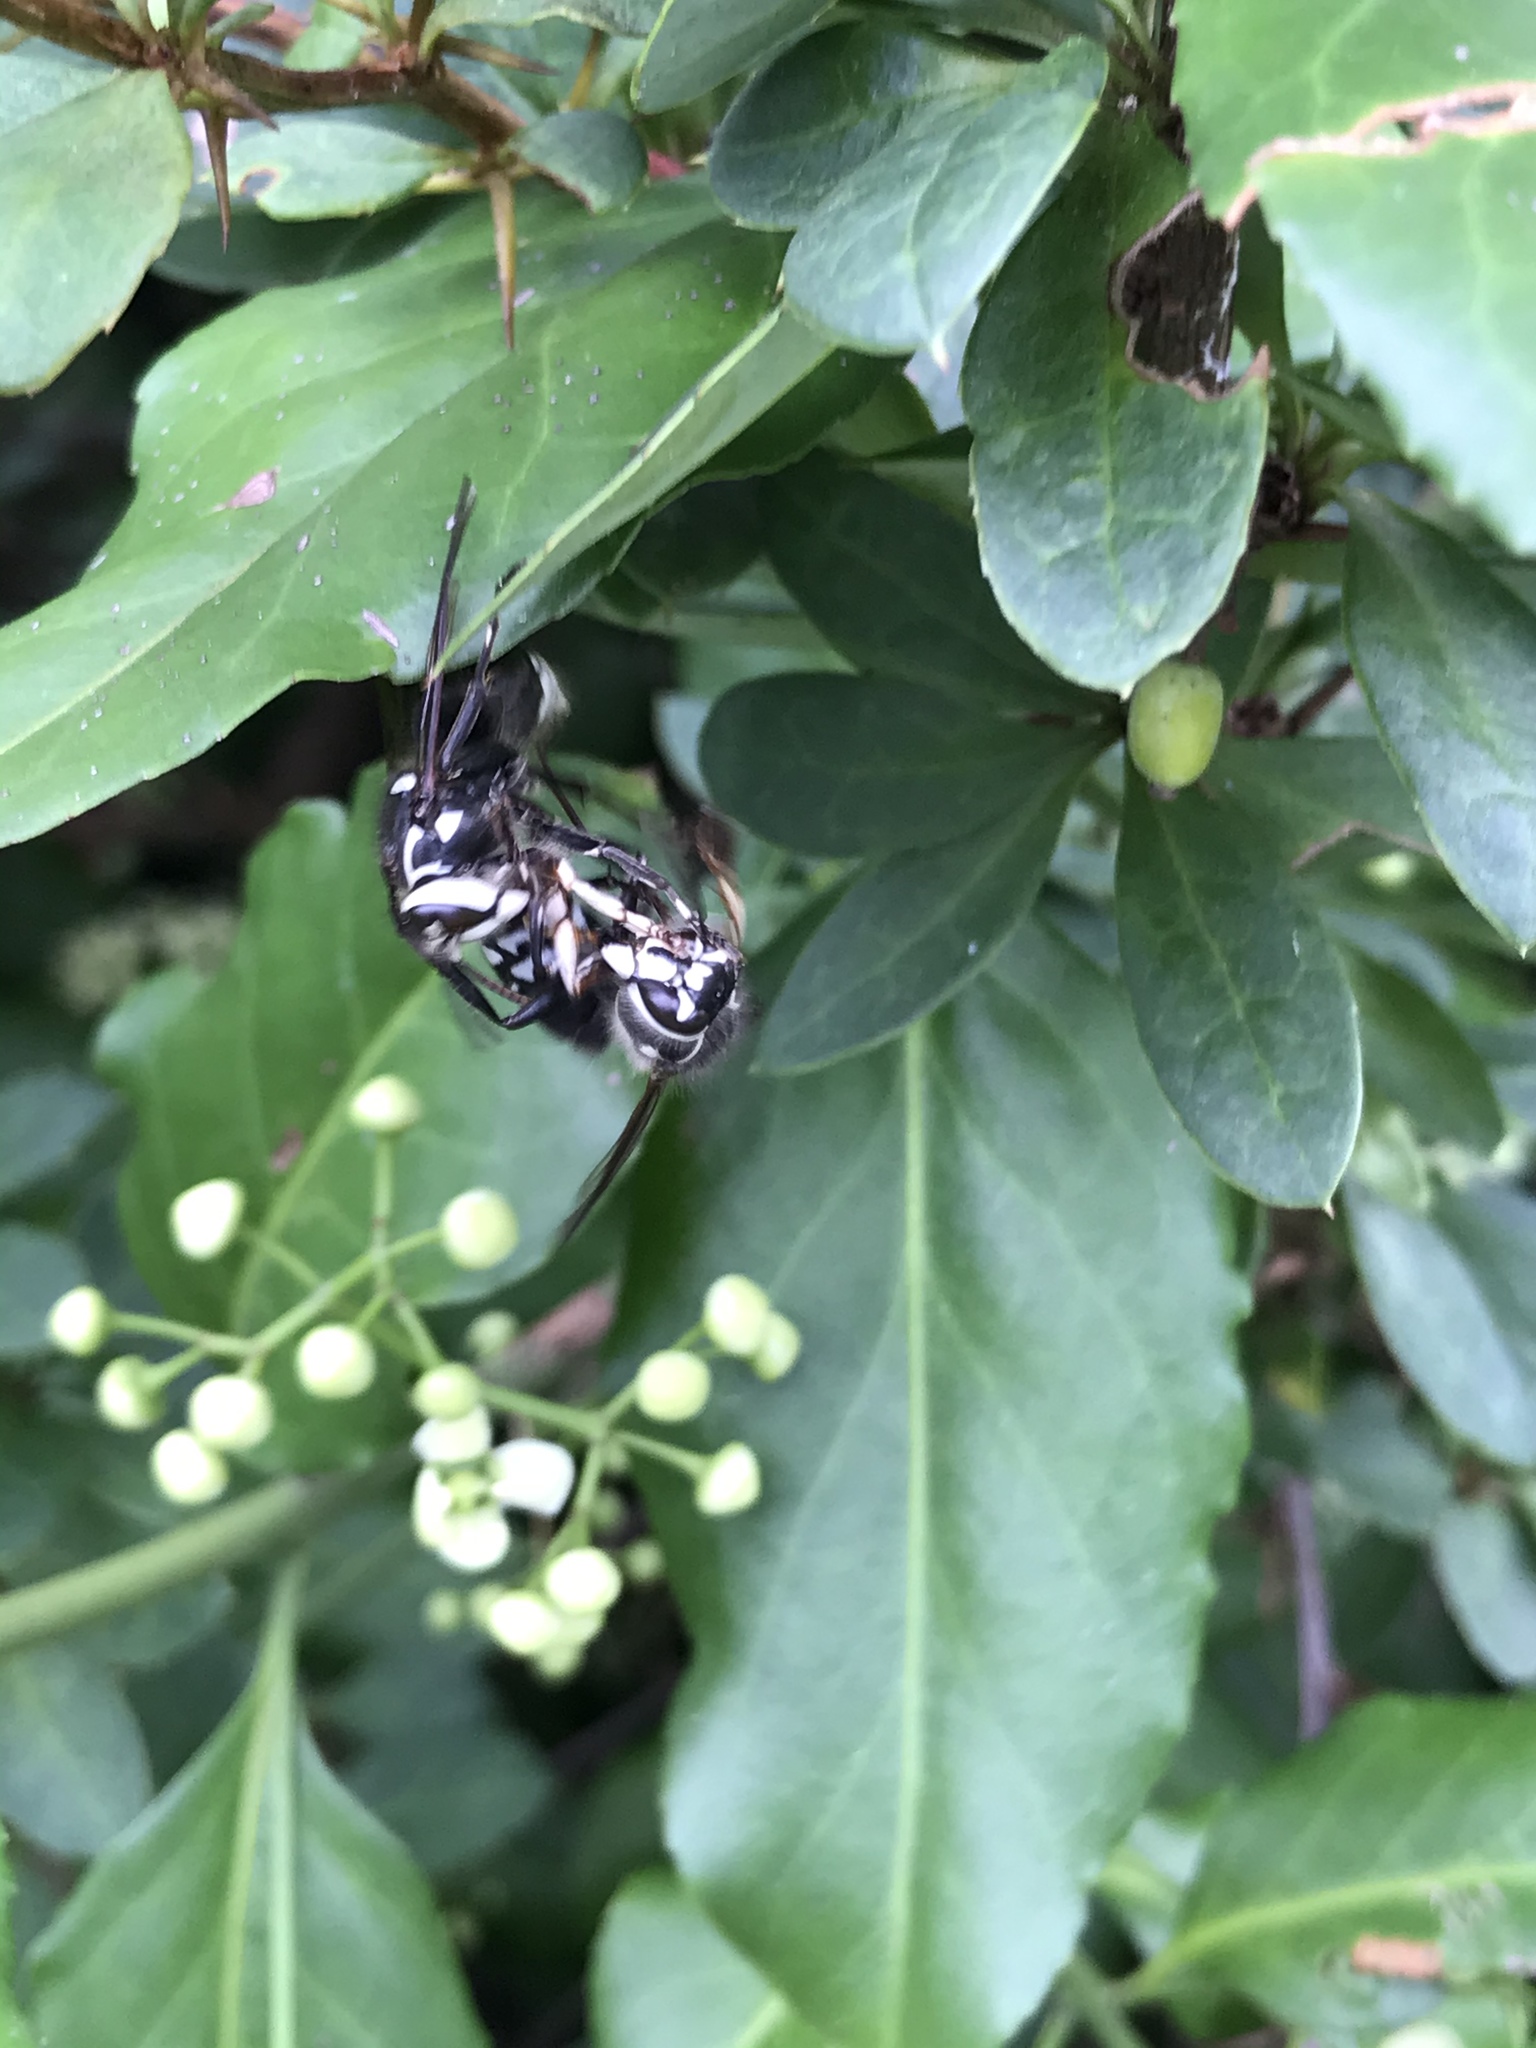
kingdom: Animalia
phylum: Arthropoda
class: Insecta
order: Hymenoptera
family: Vespidae
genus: Dolichovespula
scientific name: Dolichovespula maculata
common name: Bald-faced hornet
